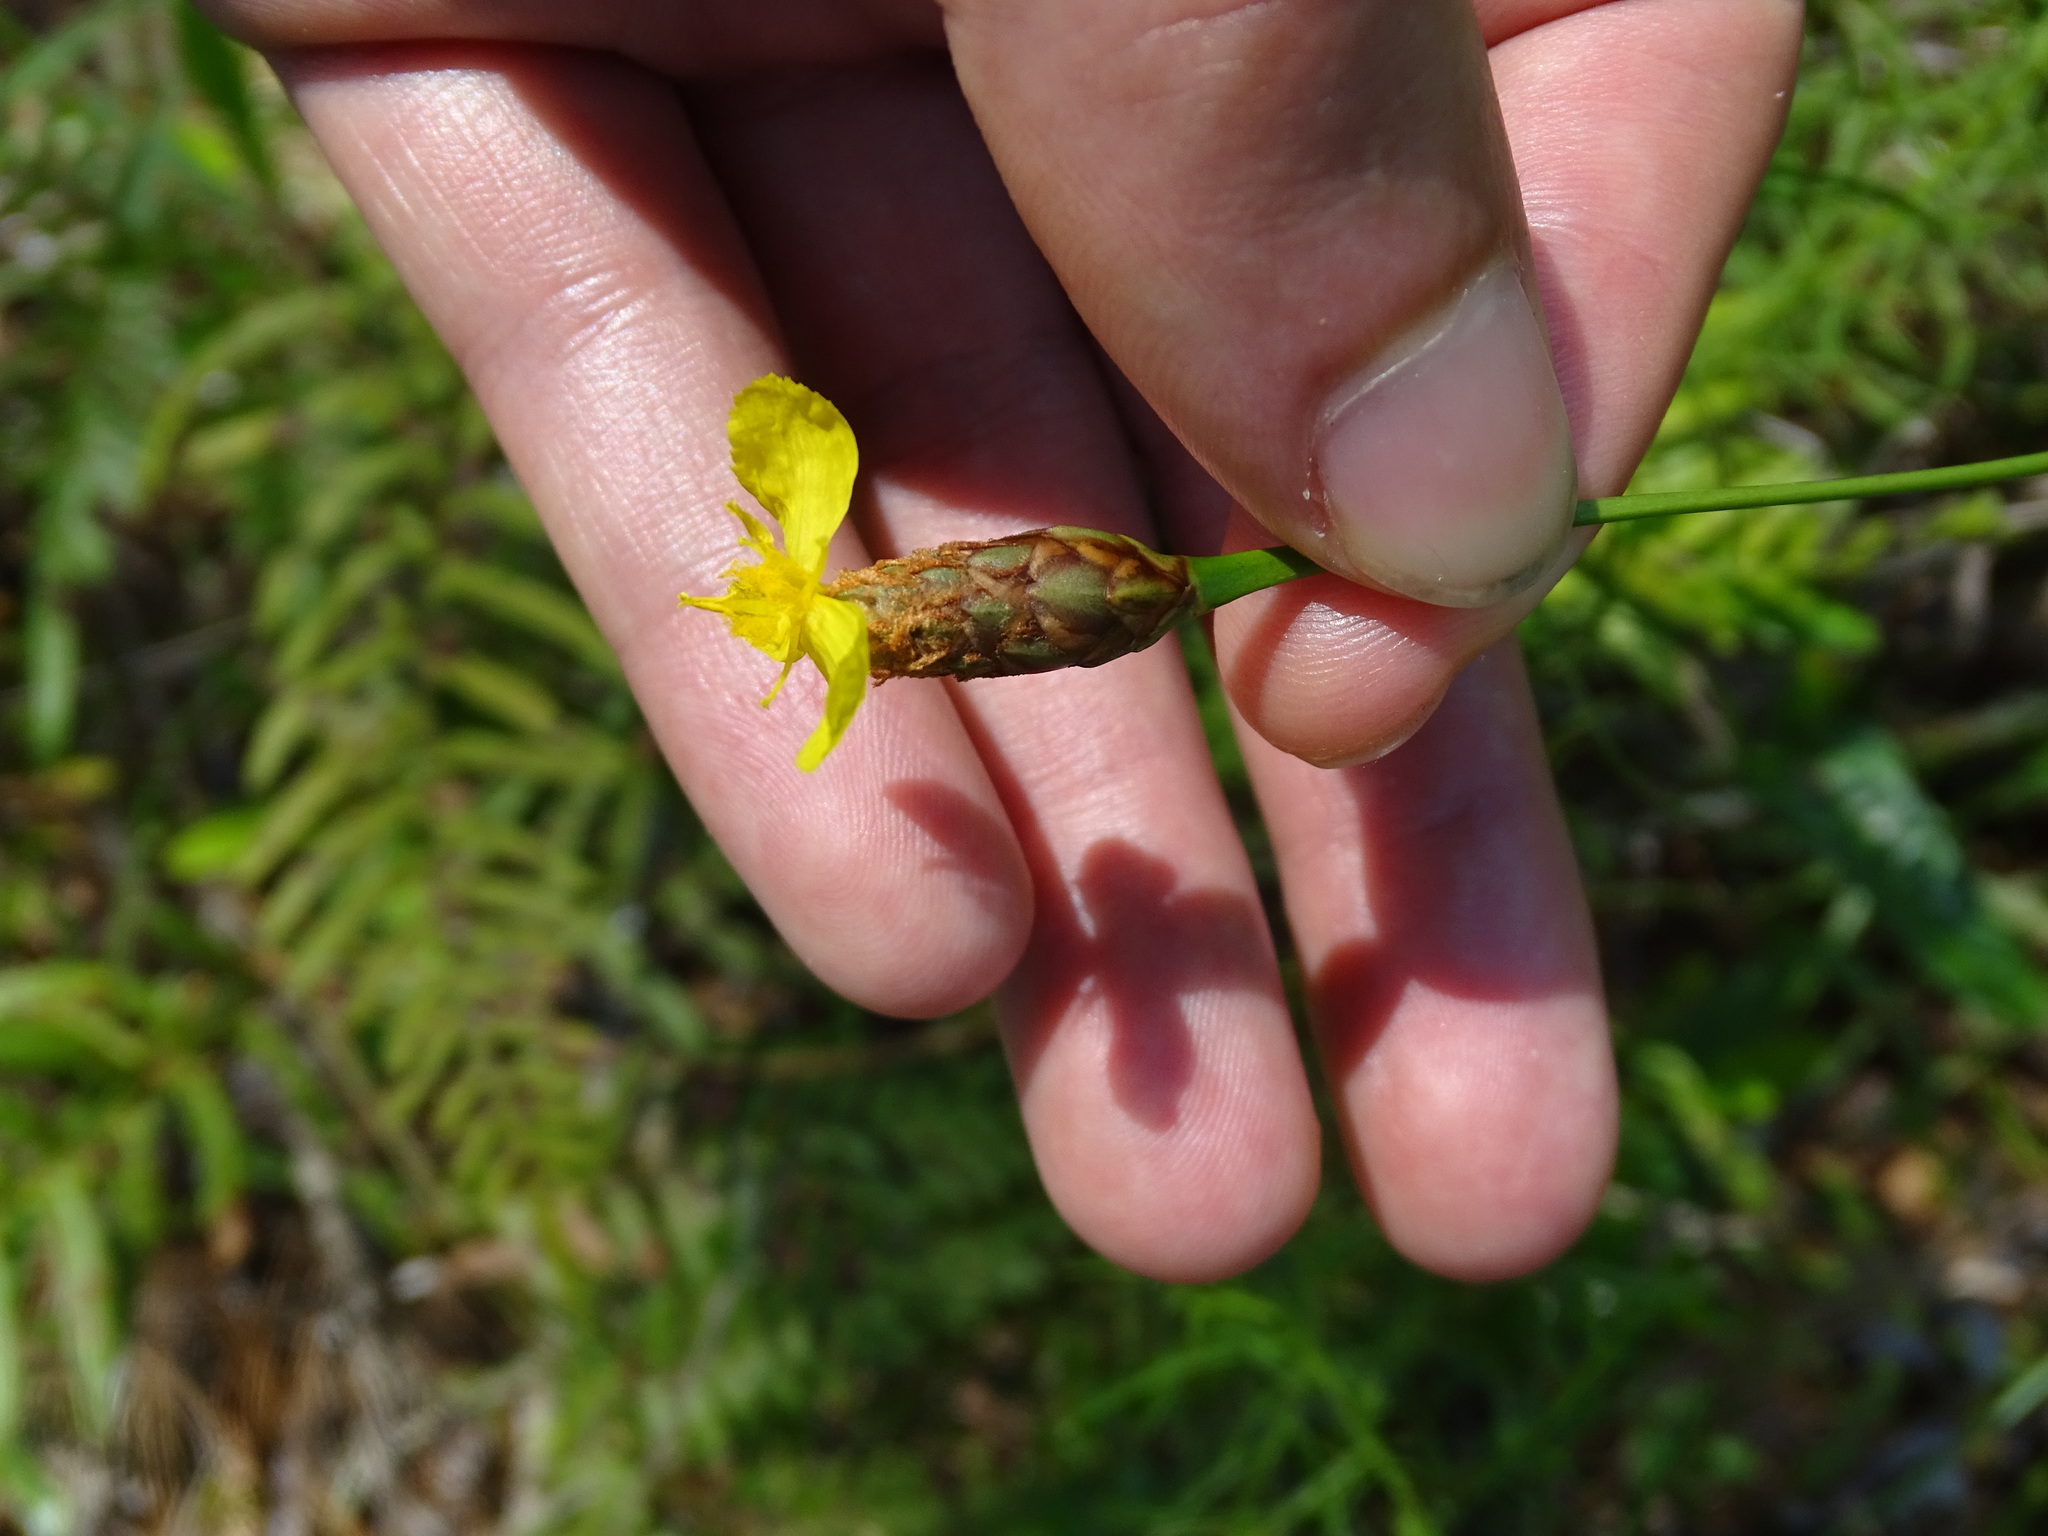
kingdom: Plantae
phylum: Tracheophyta
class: Liliopsida
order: Poales
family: Xyridaceae
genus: Xyris
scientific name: Xyris caroliniana
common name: Carolina yellow-eyed-grass
